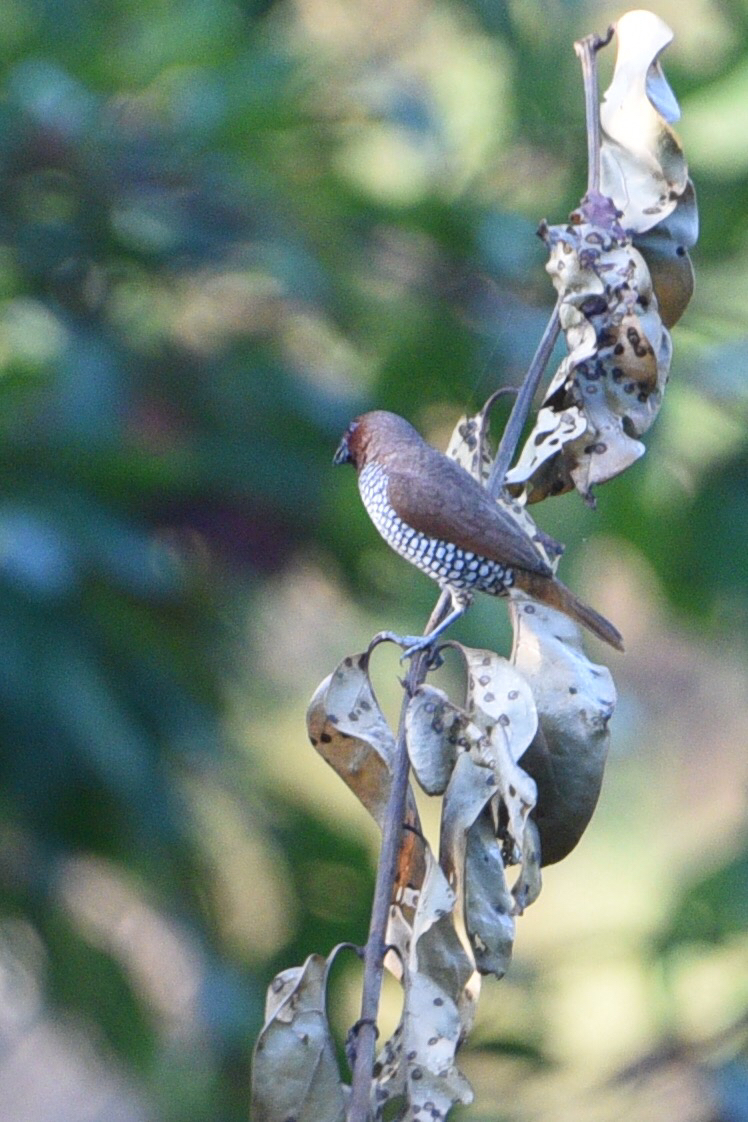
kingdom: Animalia
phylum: Chordata
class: Aves
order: Passeriformes
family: Estrildidae
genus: Lonchura
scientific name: Lonchura punctulata
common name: Scaly-breasted munia
